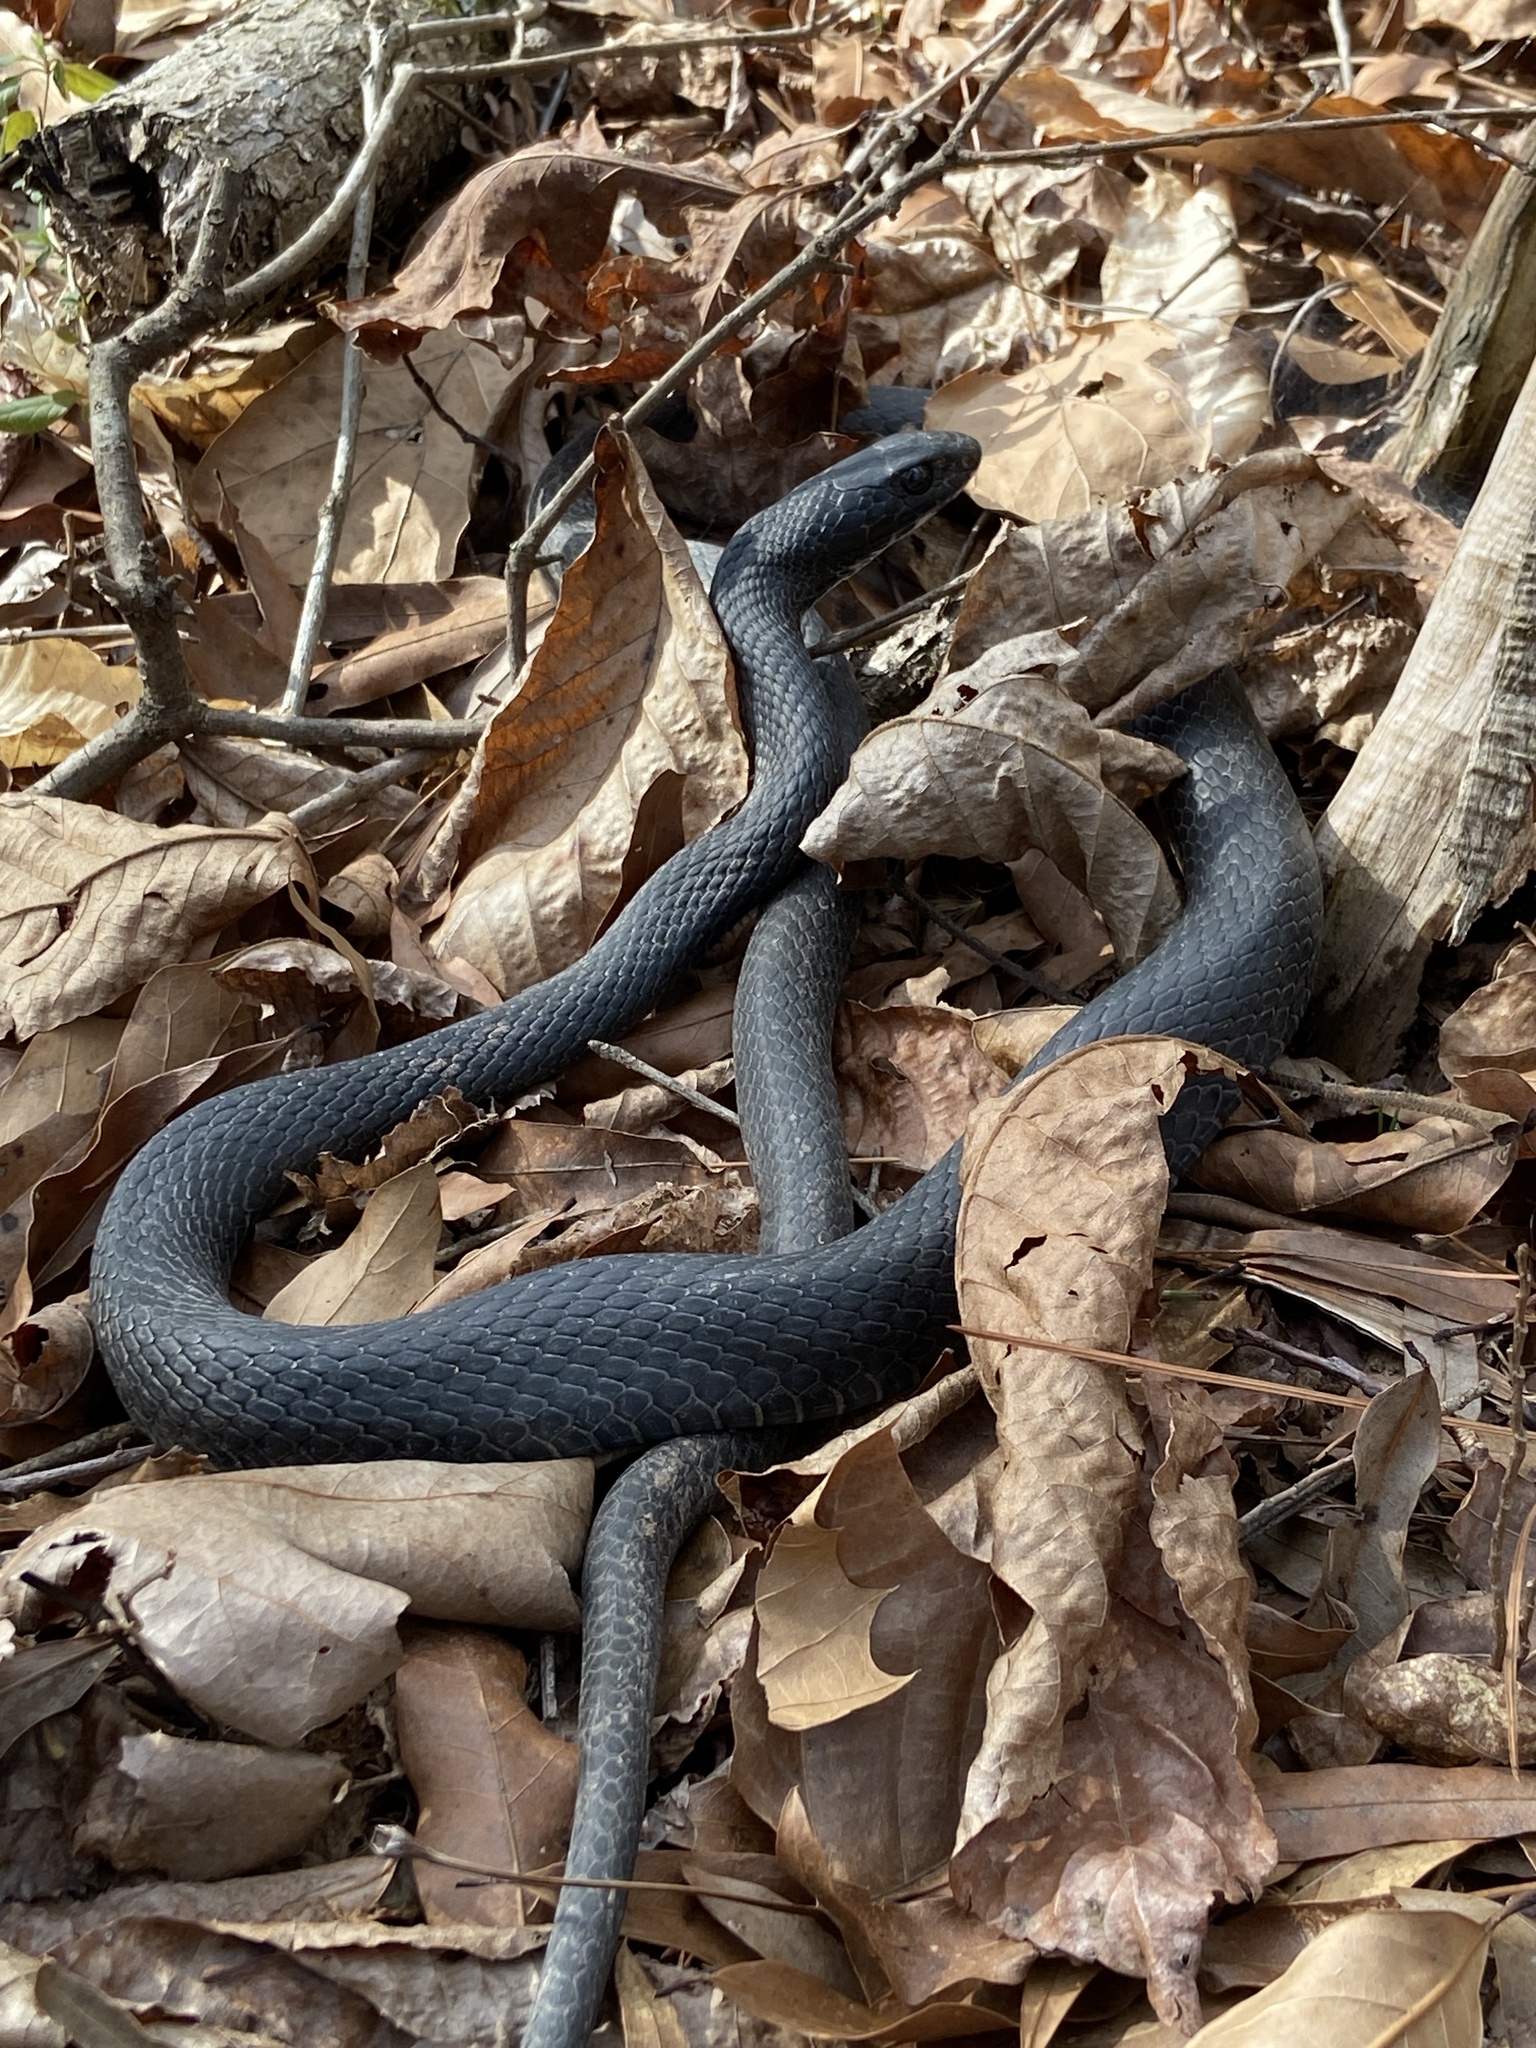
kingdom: Animalia
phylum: Chordata
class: Squamata
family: Colubridae
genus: Coluber
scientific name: Coluber constrictor
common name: Eastern racer
